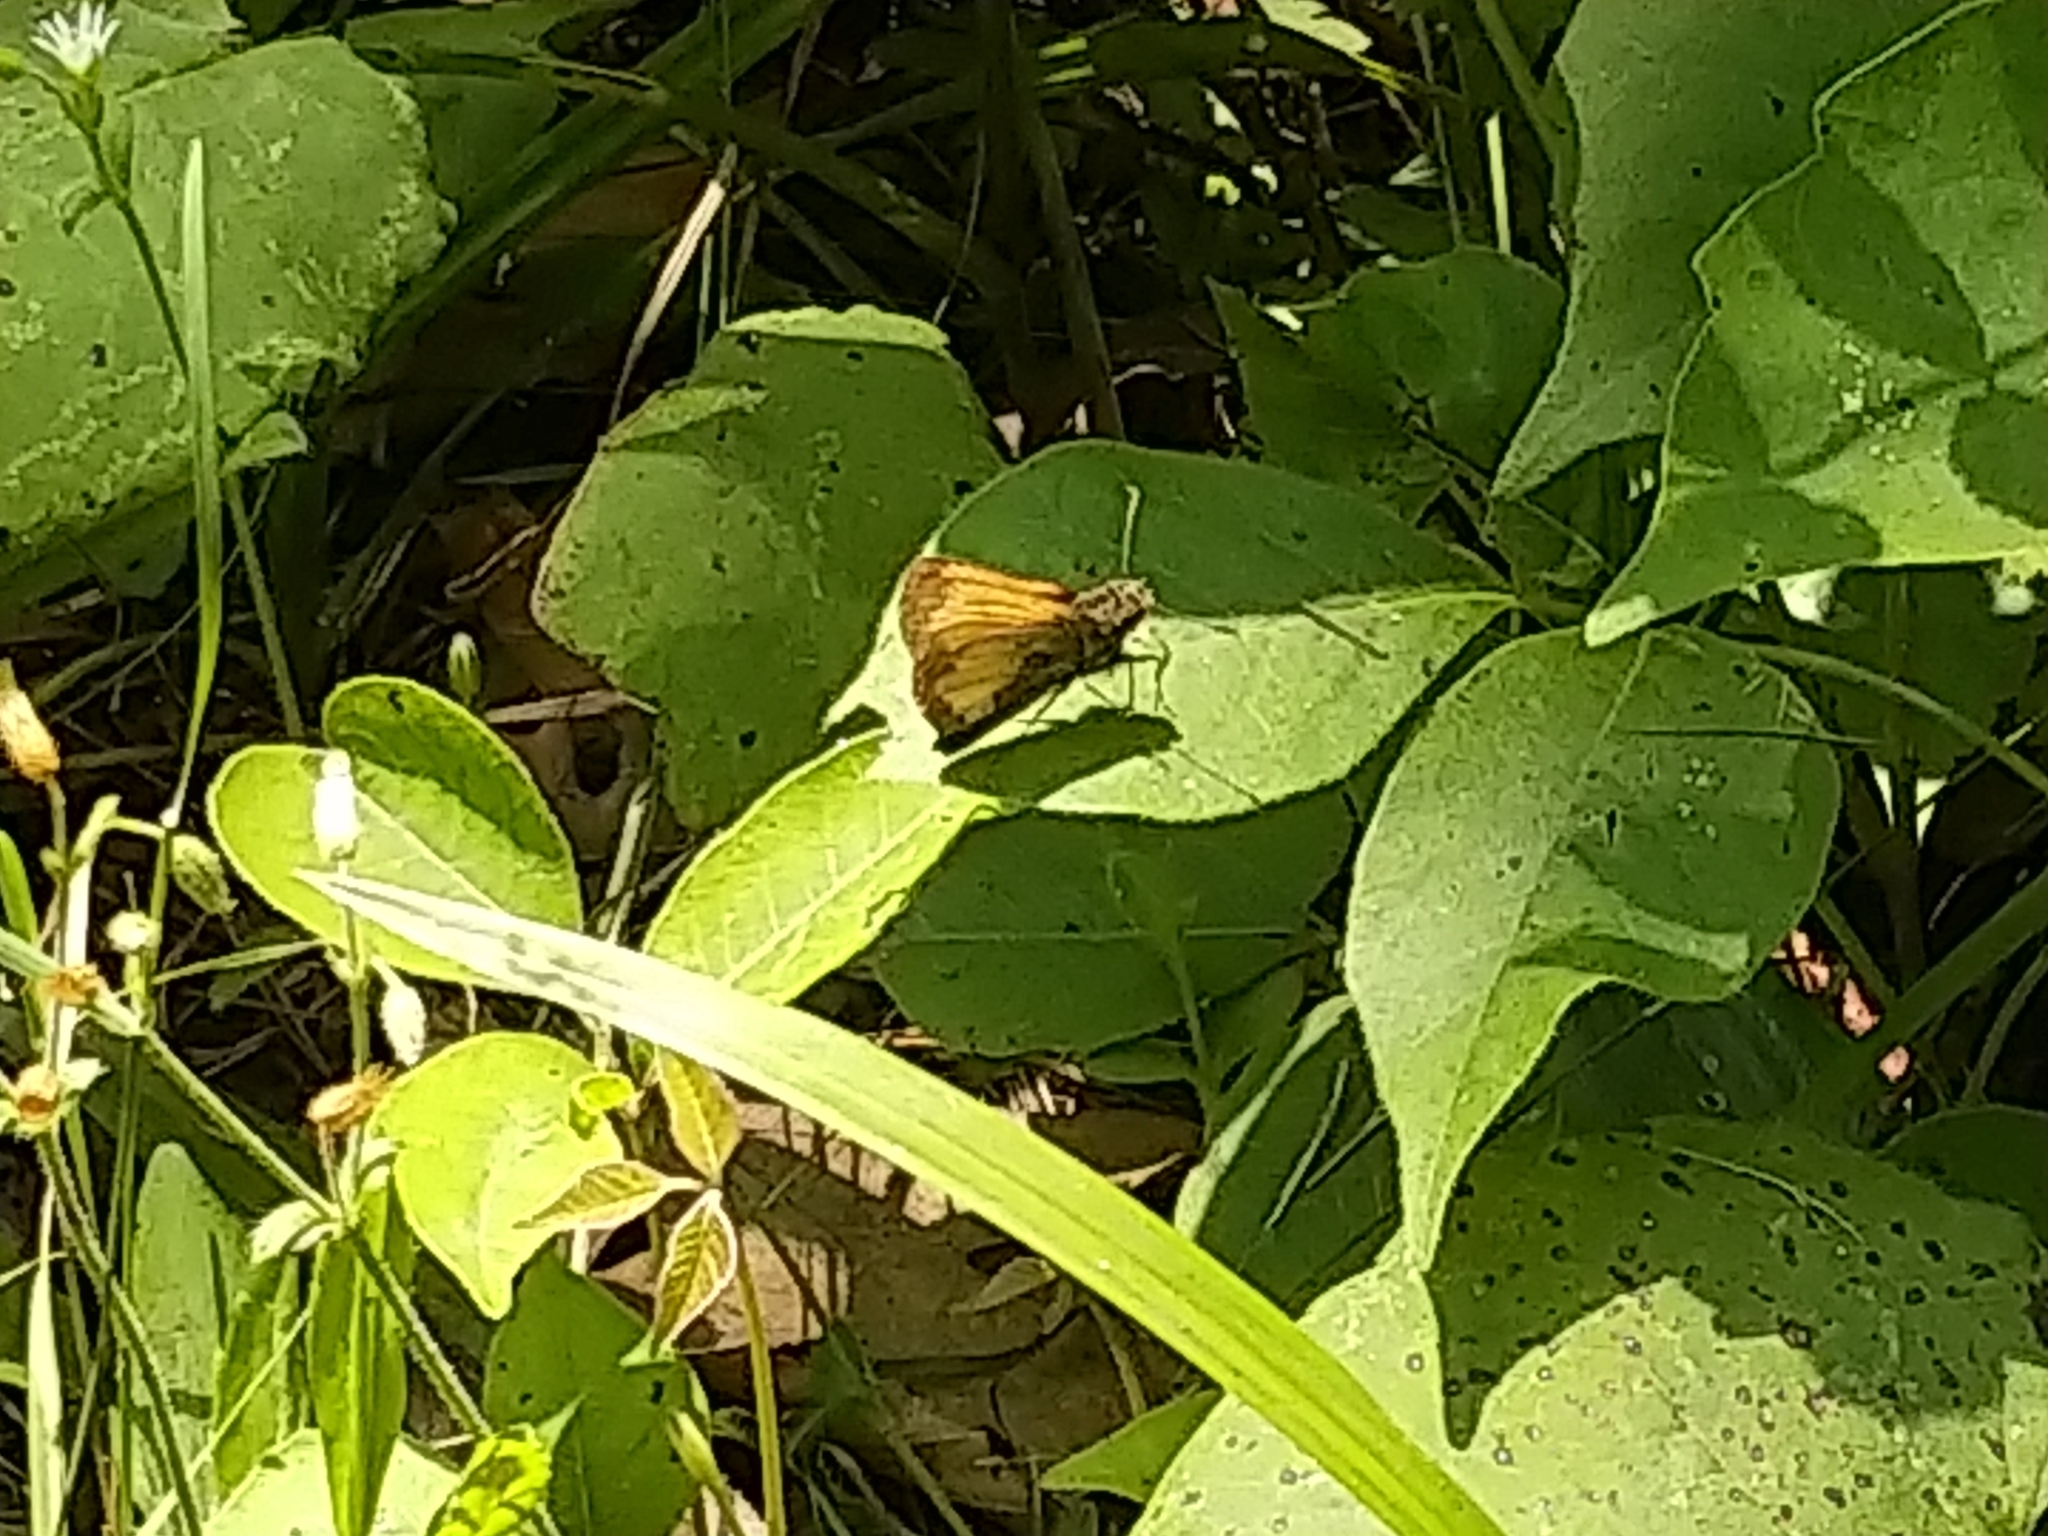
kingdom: Animalia
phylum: Arthropoda
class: Insecta
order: Lepidoptera
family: Hesperiidae
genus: Lon
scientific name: Lon hobomok
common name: Hobomok skipper
